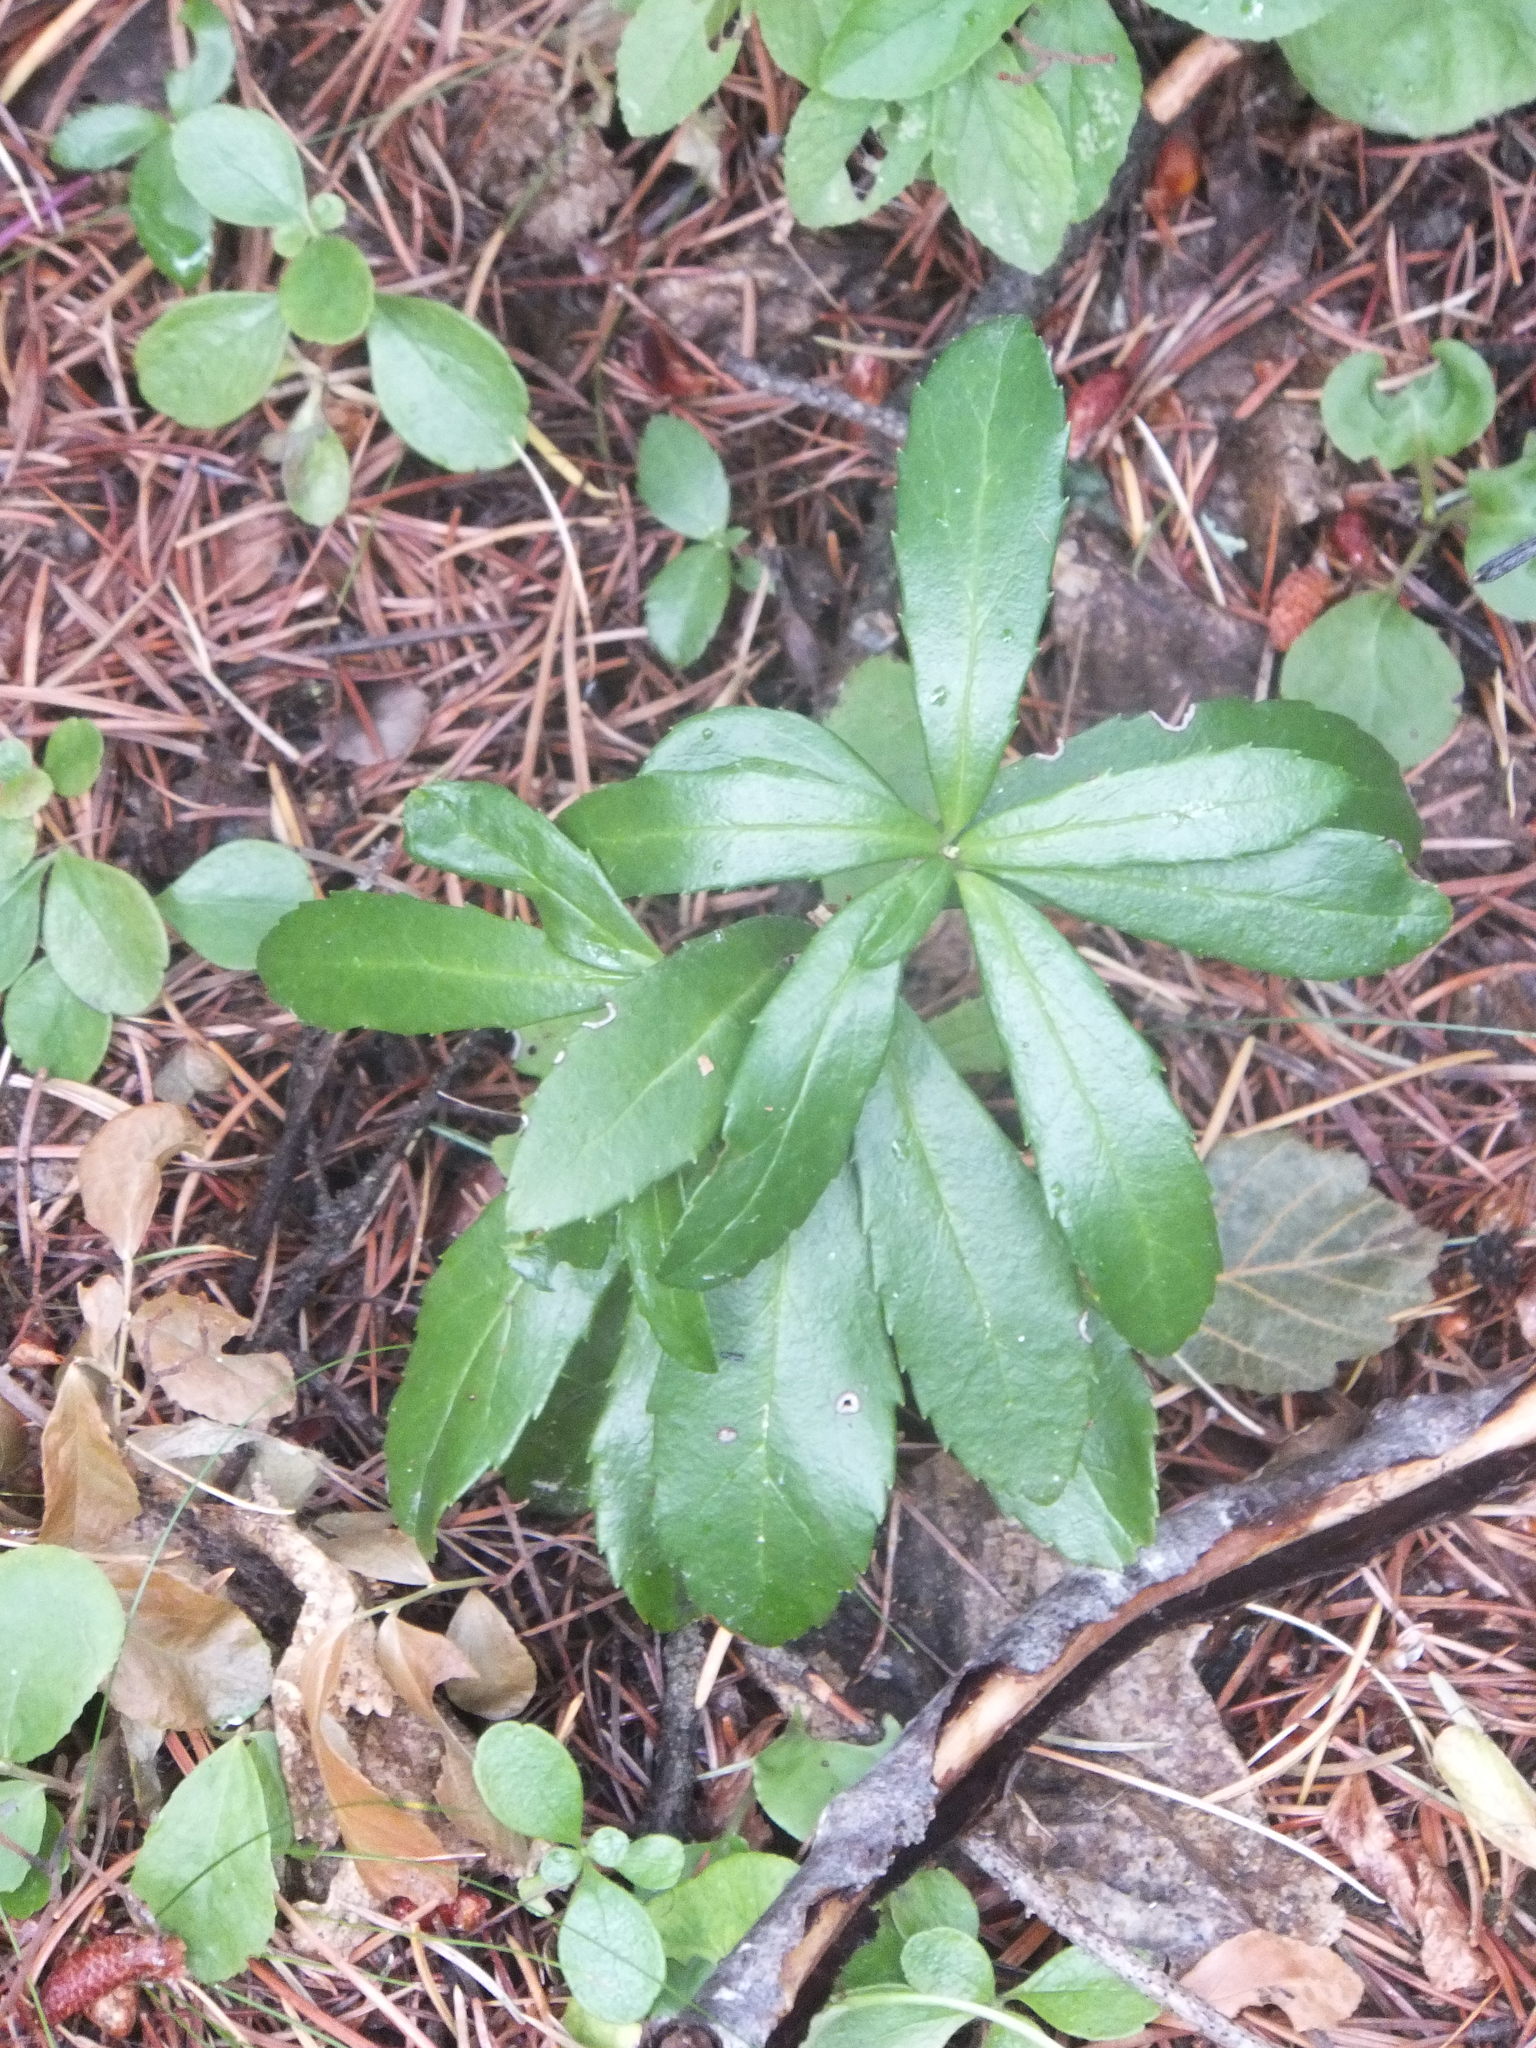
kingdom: Plantae
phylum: Tracheophyta
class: Magnoliopsida
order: Ericales
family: Ericaceae
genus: Chimaphila
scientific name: Chimaphila umbellata
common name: Pipsissewa
